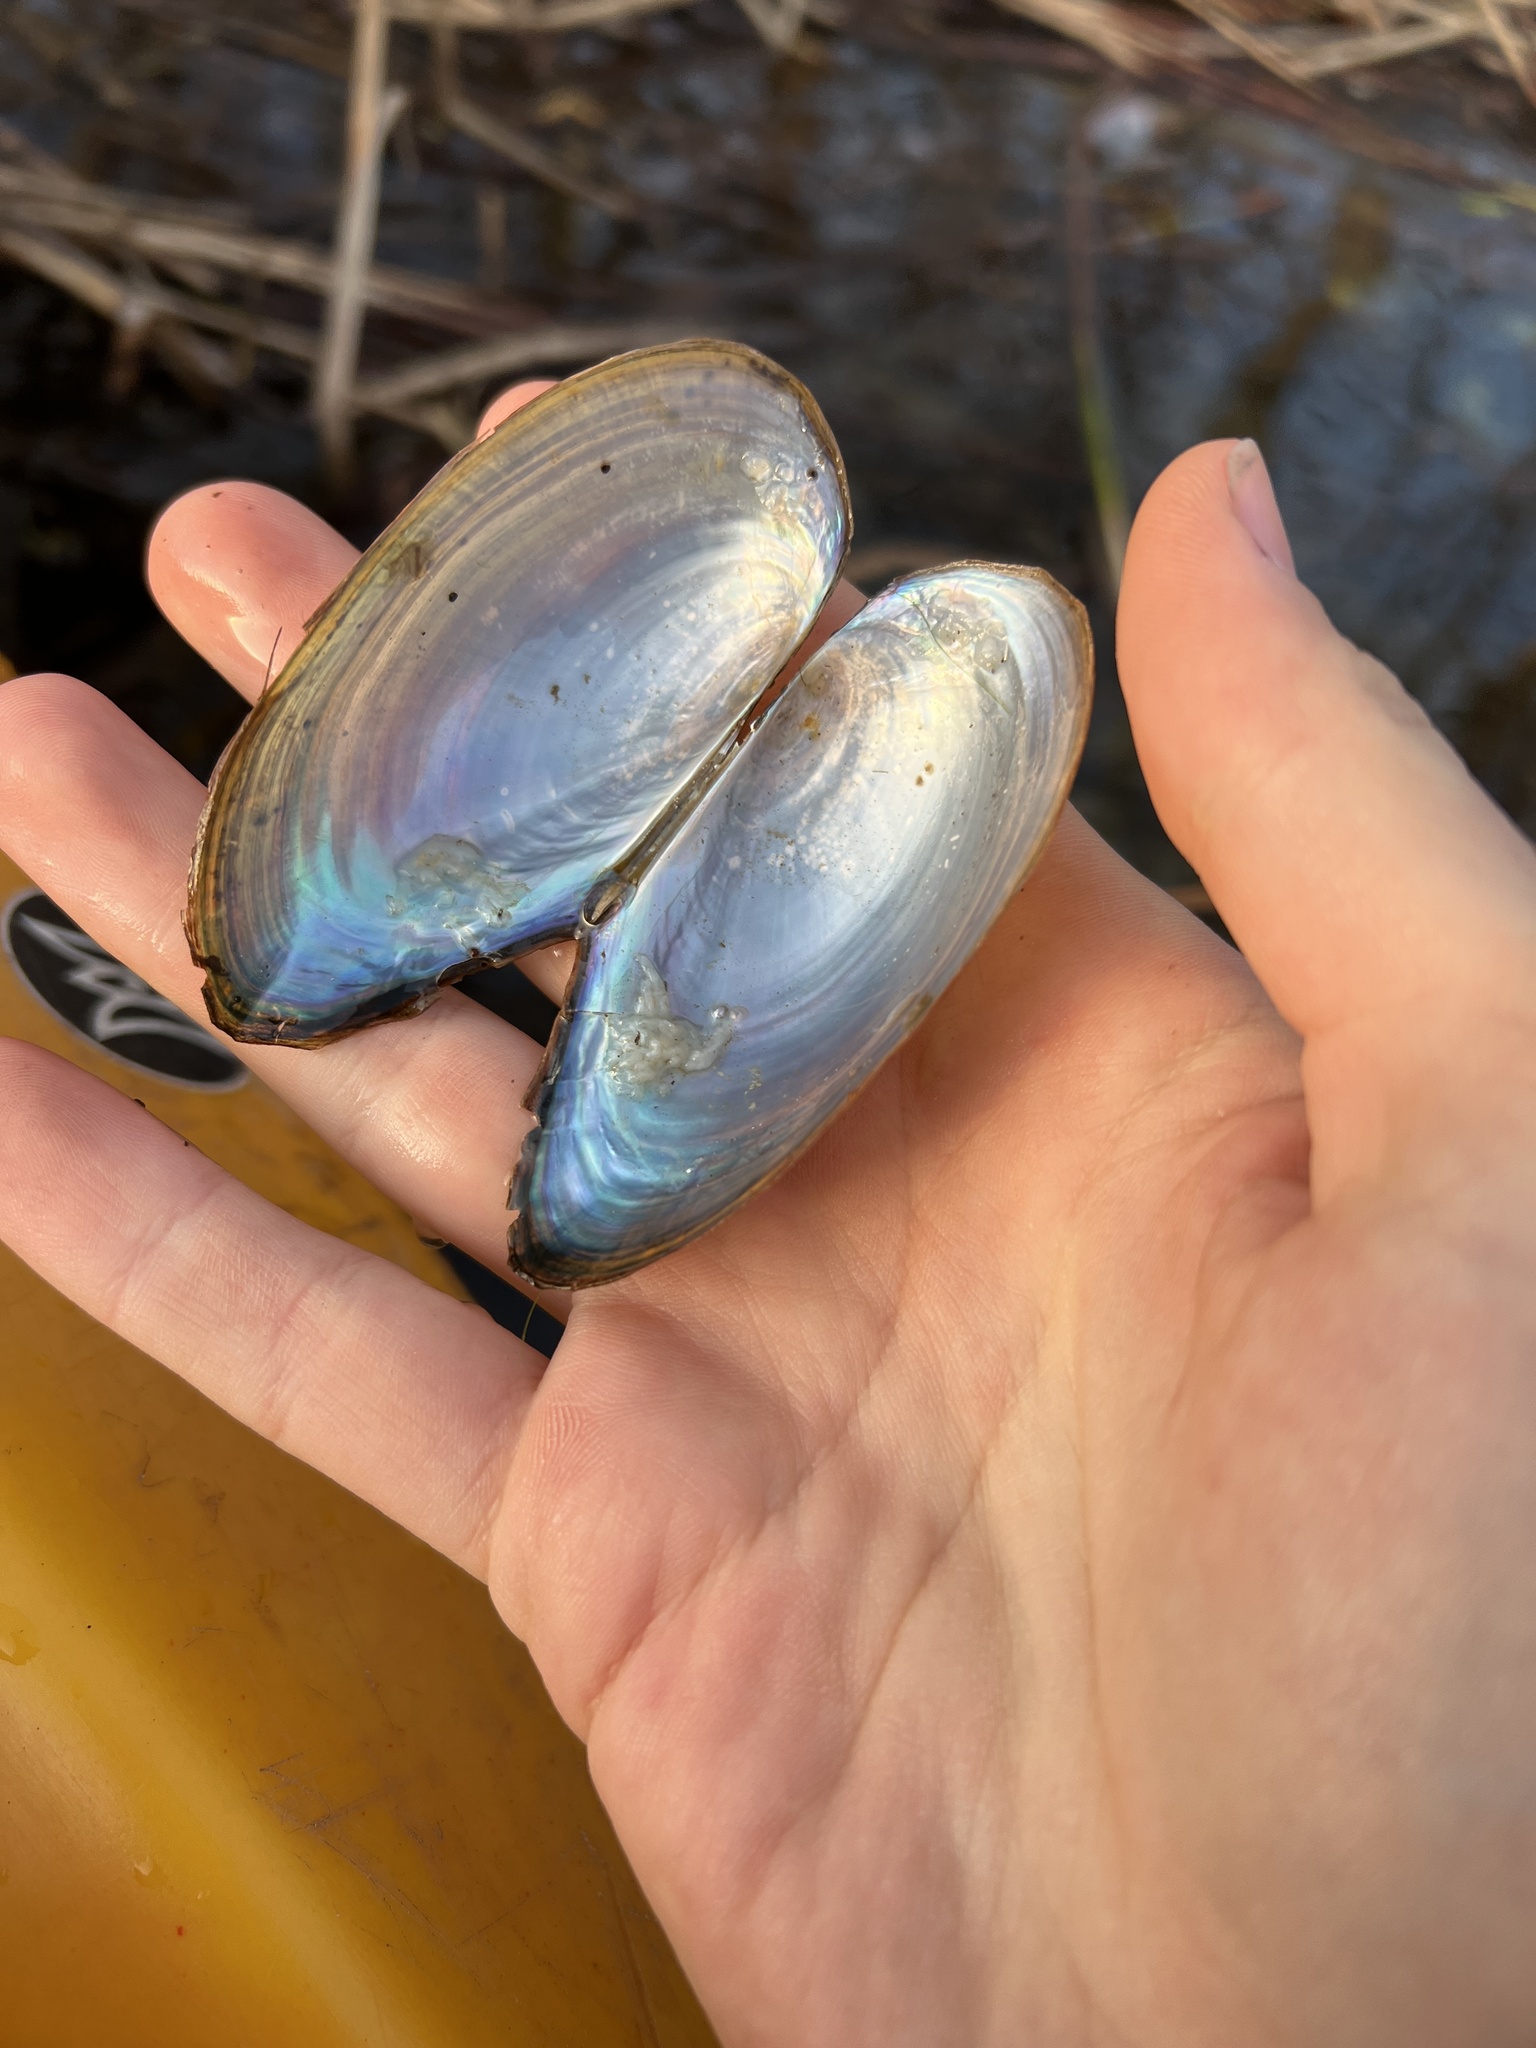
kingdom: Animalia
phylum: Mollusca
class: Bivalvia
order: Unionida
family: Unionidae
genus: Utterbackia
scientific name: Utterbackia imbecillis
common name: Paper pondshell
